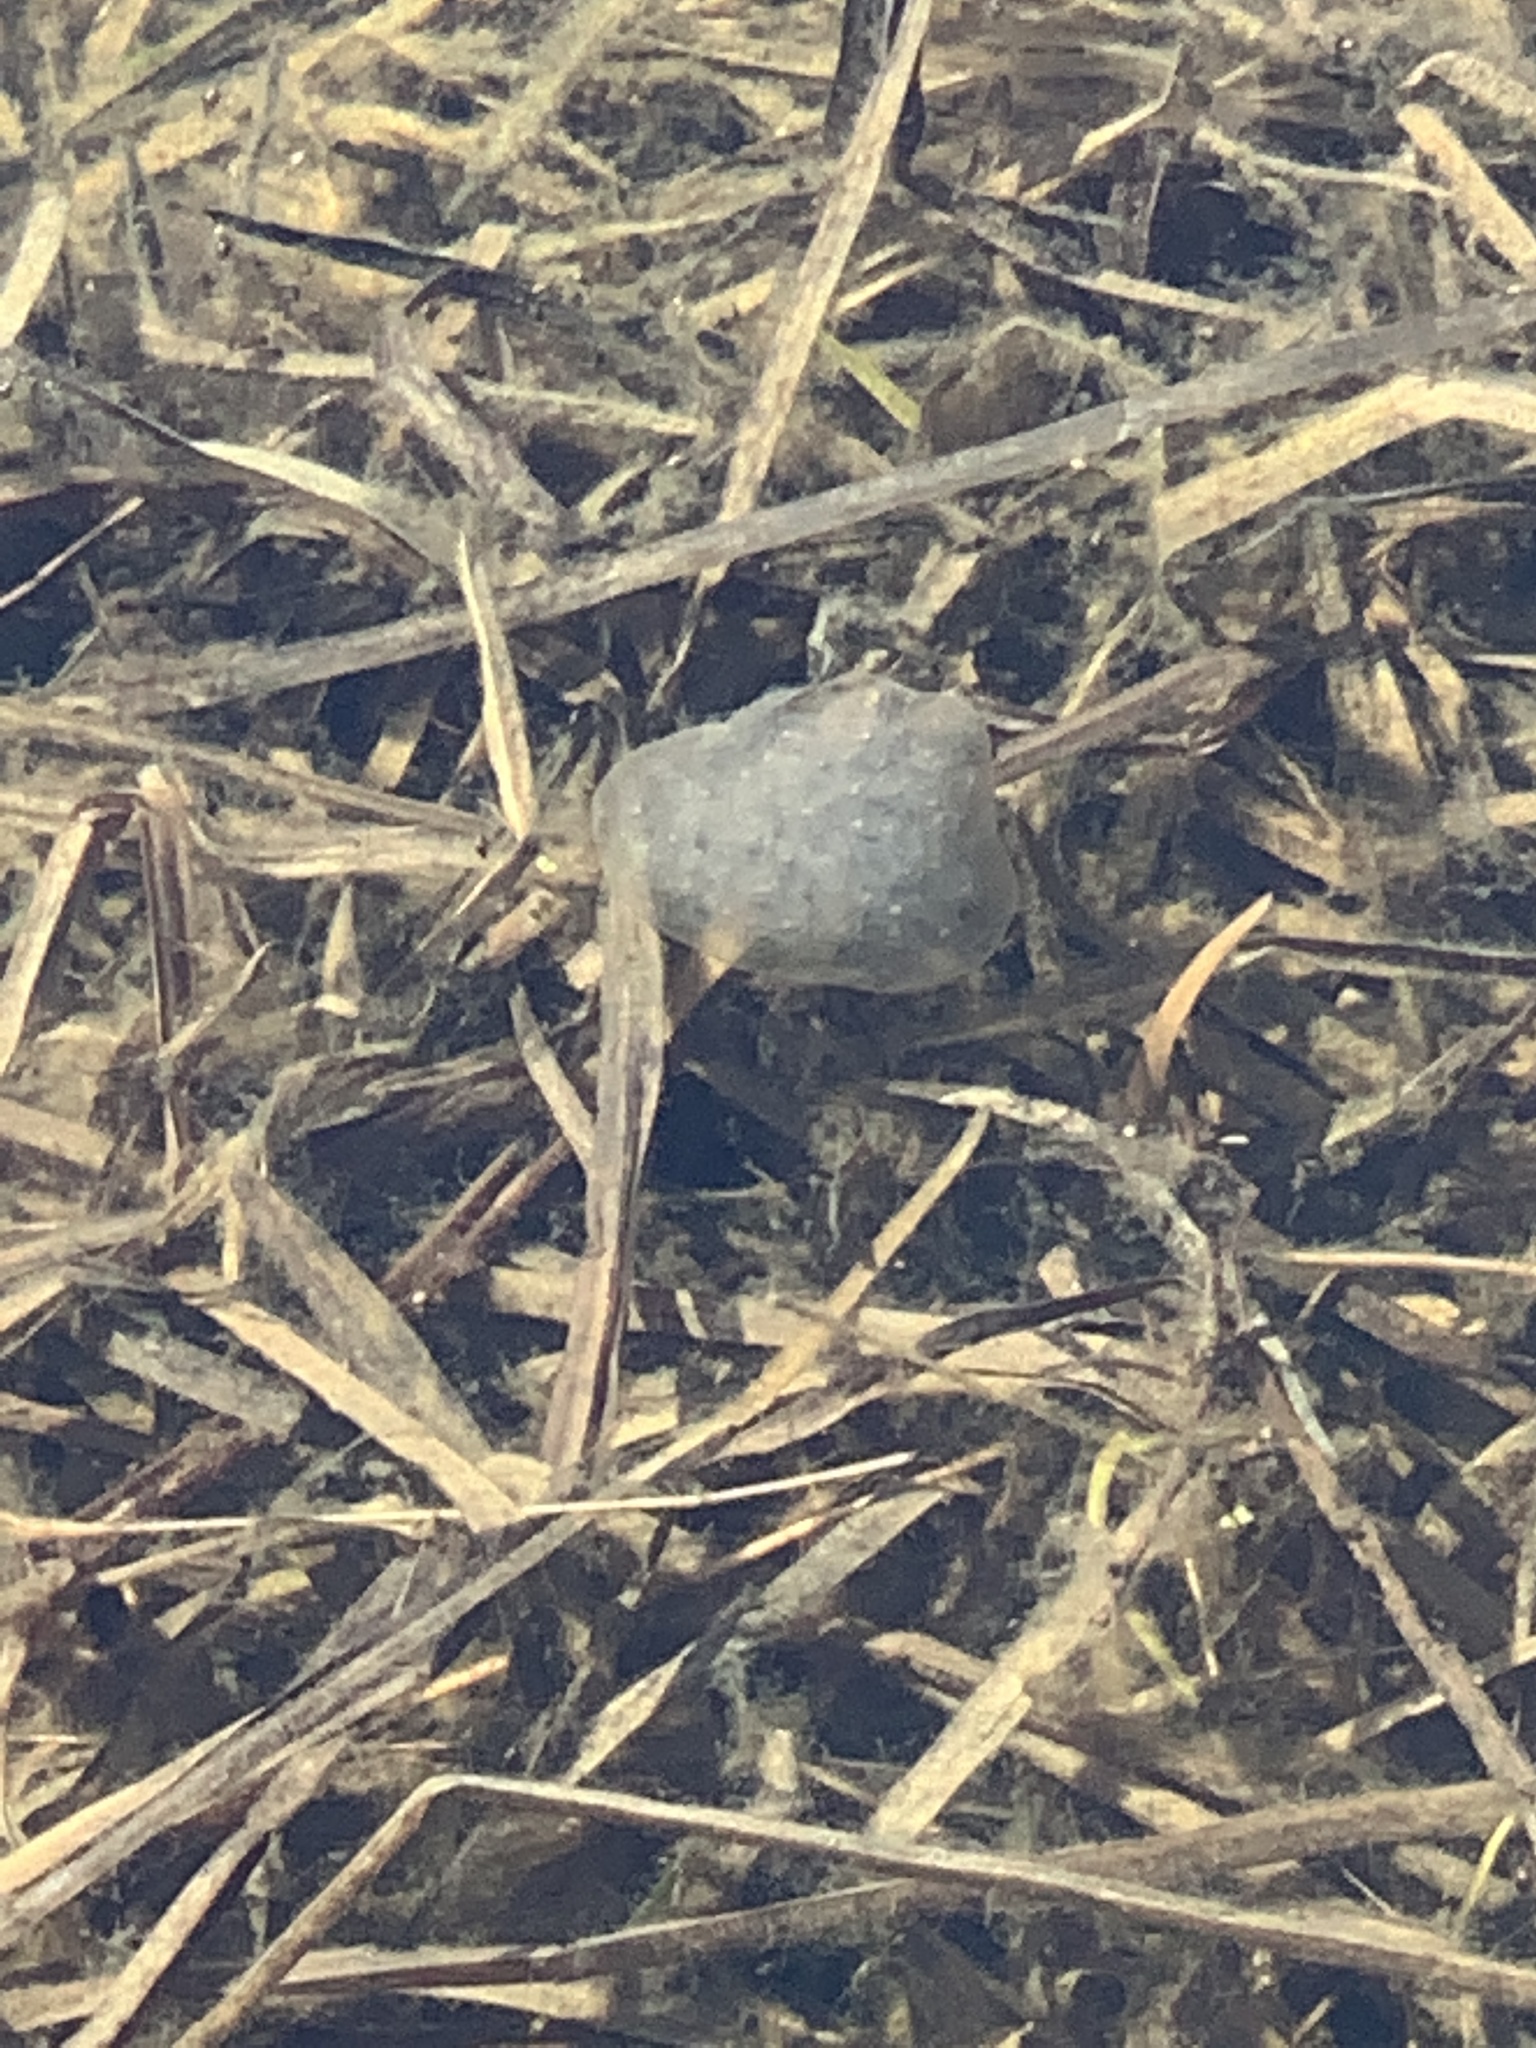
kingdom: Animalia
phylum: Chordata
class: Amphibia
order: Caudata
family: Ambystomatidae
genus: Ambystoma
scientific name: Ambystoma maculatum
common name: Spotted salamander
